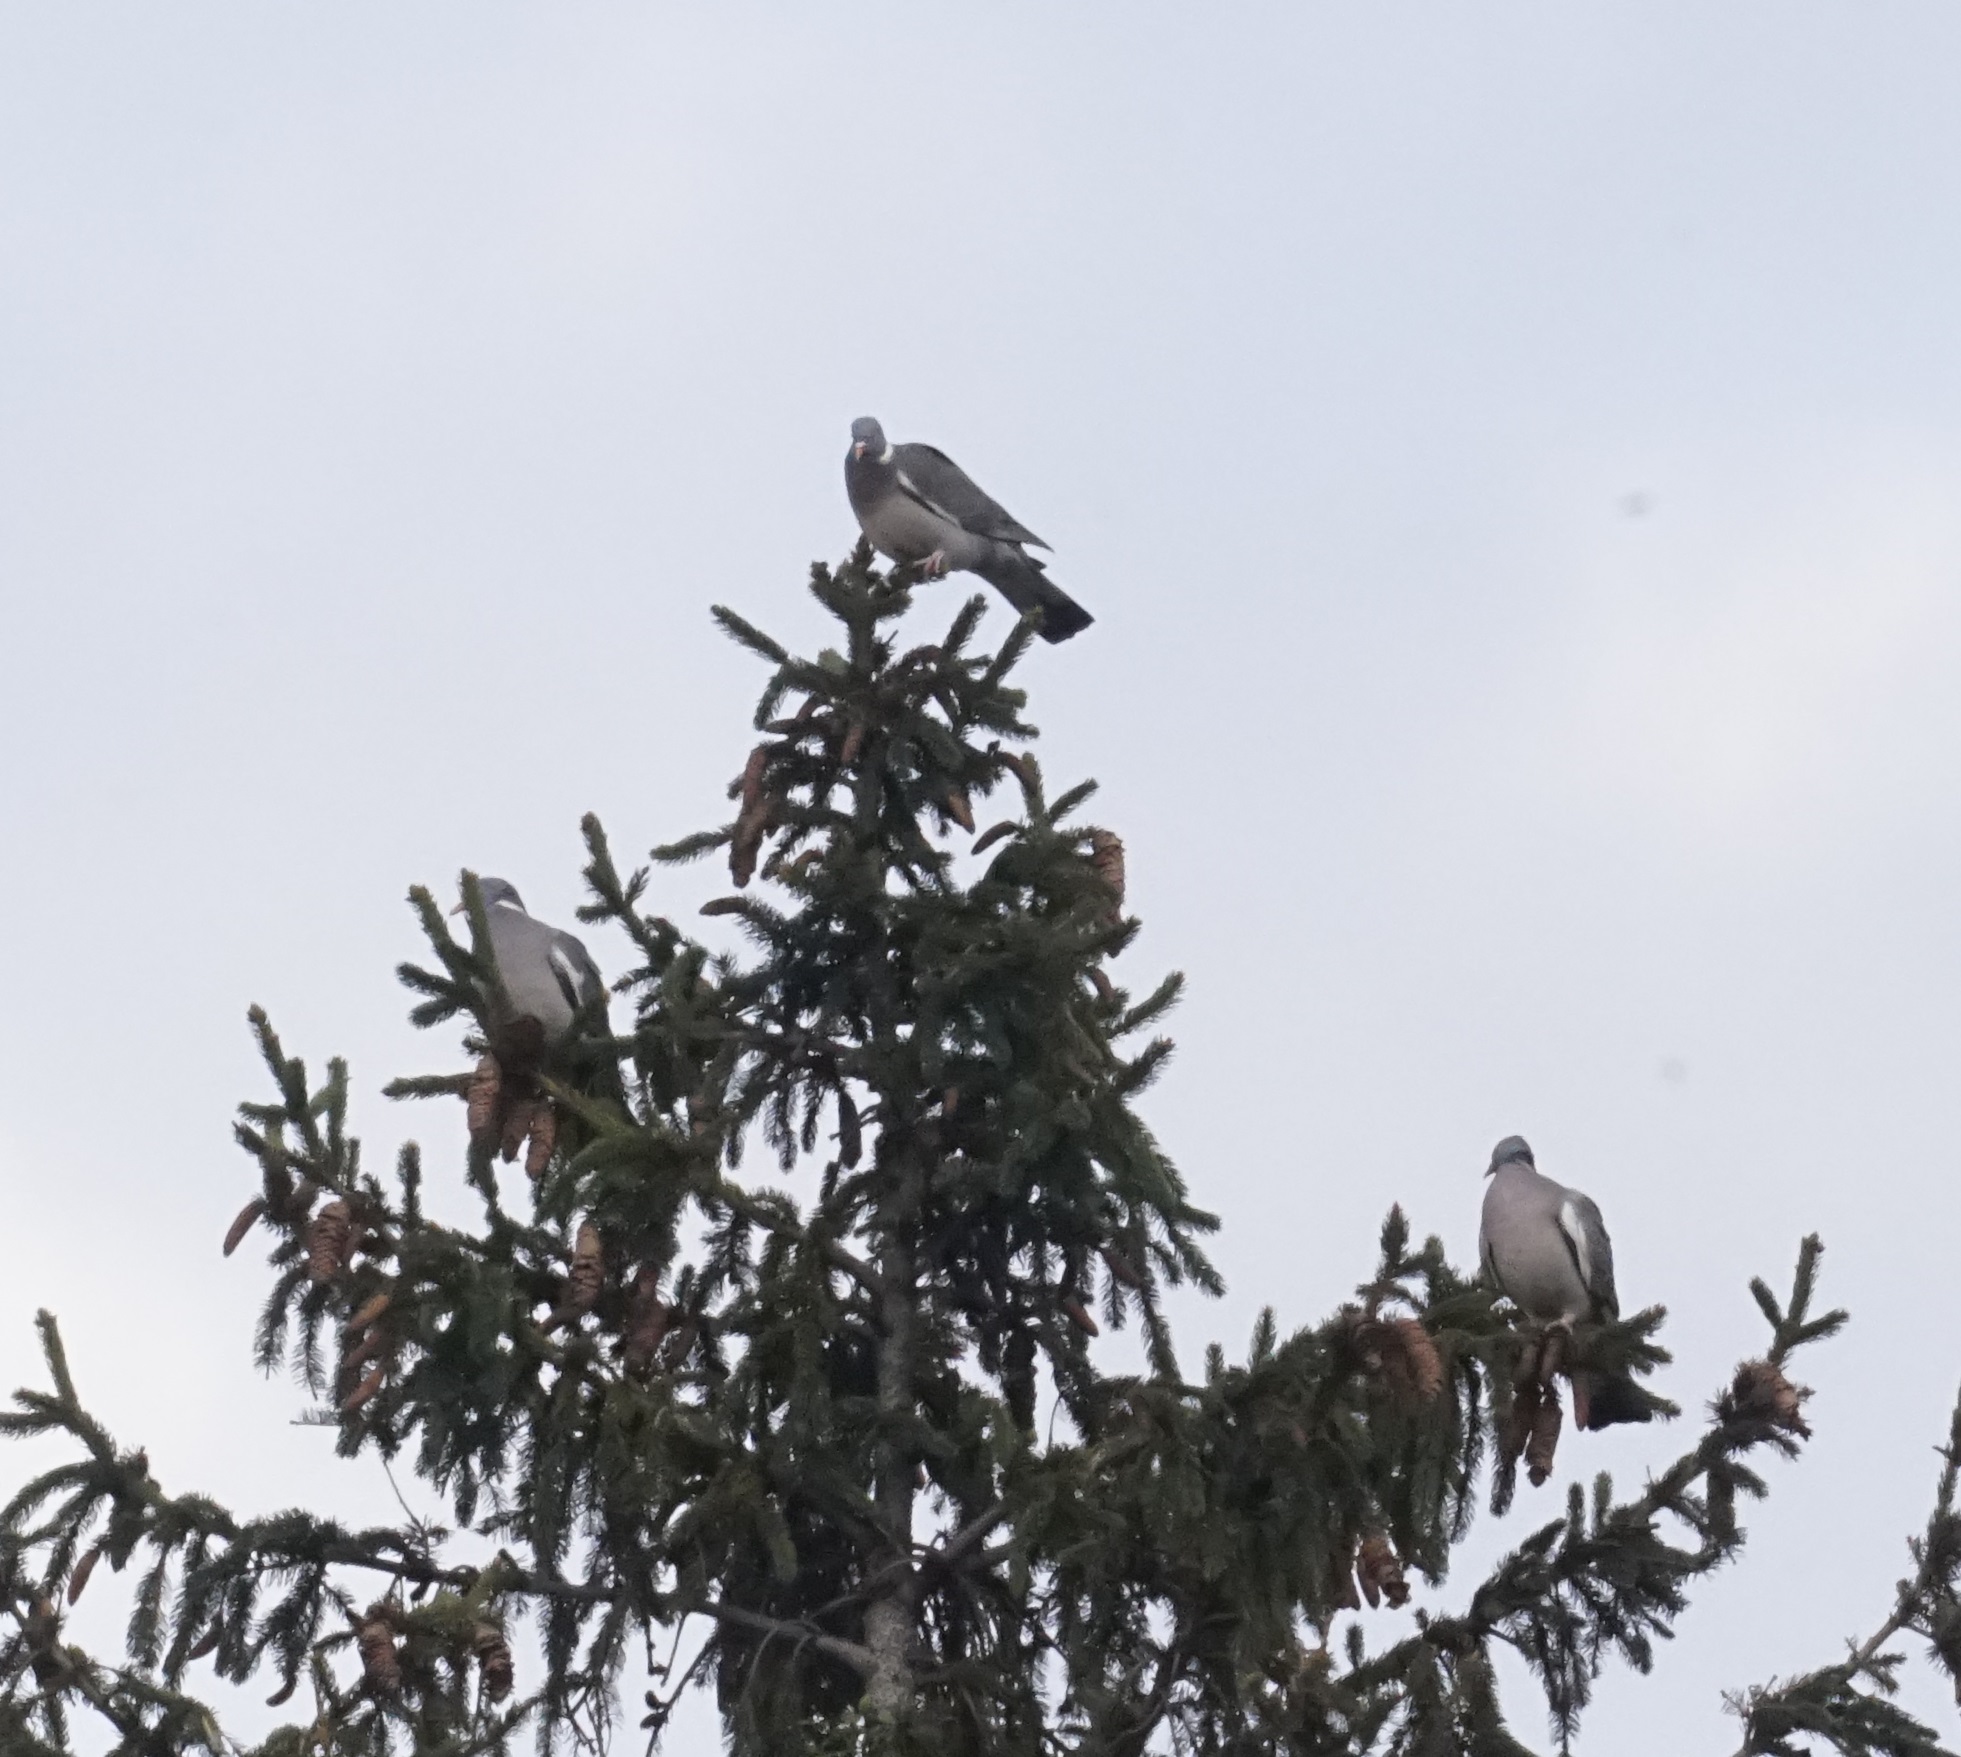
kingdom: Animalia
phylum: Chordata
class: Aves
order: Columbiformes
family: Columbidae
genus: Columba
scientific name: Columba palumbus
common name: Common wood pigeon
